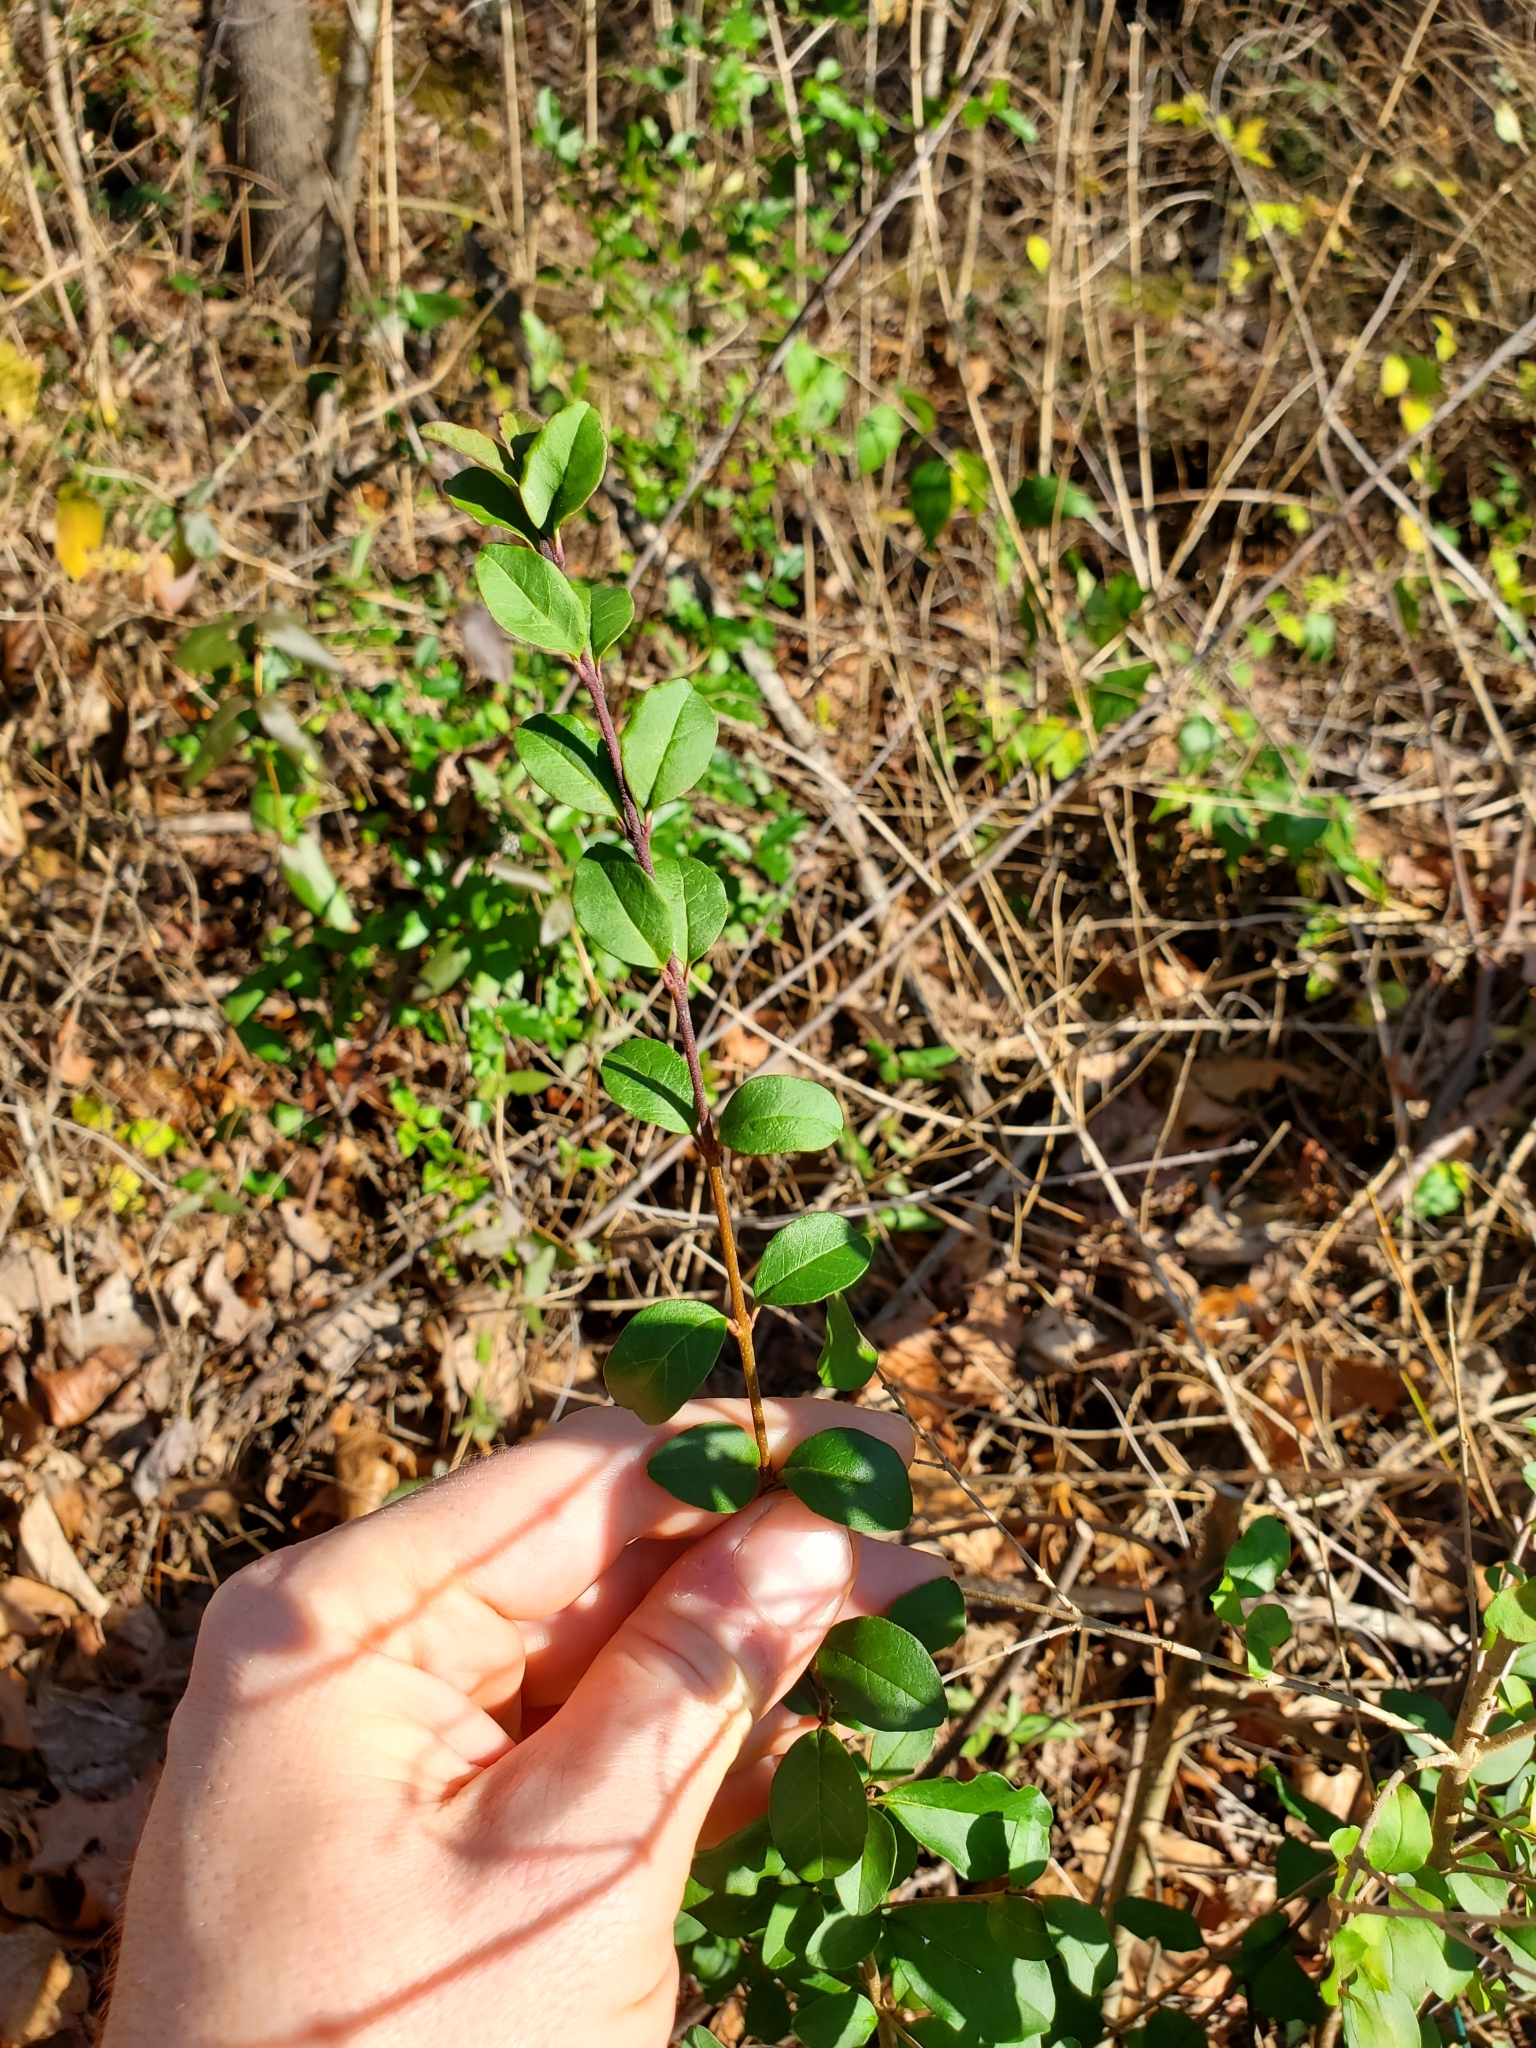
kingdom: Plantae
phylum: Tracheophyta
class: Magnoliopsida
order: Lamiales
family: Oleaceae
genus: Ligustrum
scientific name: Ligustrum sinense
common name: Chinese privet
